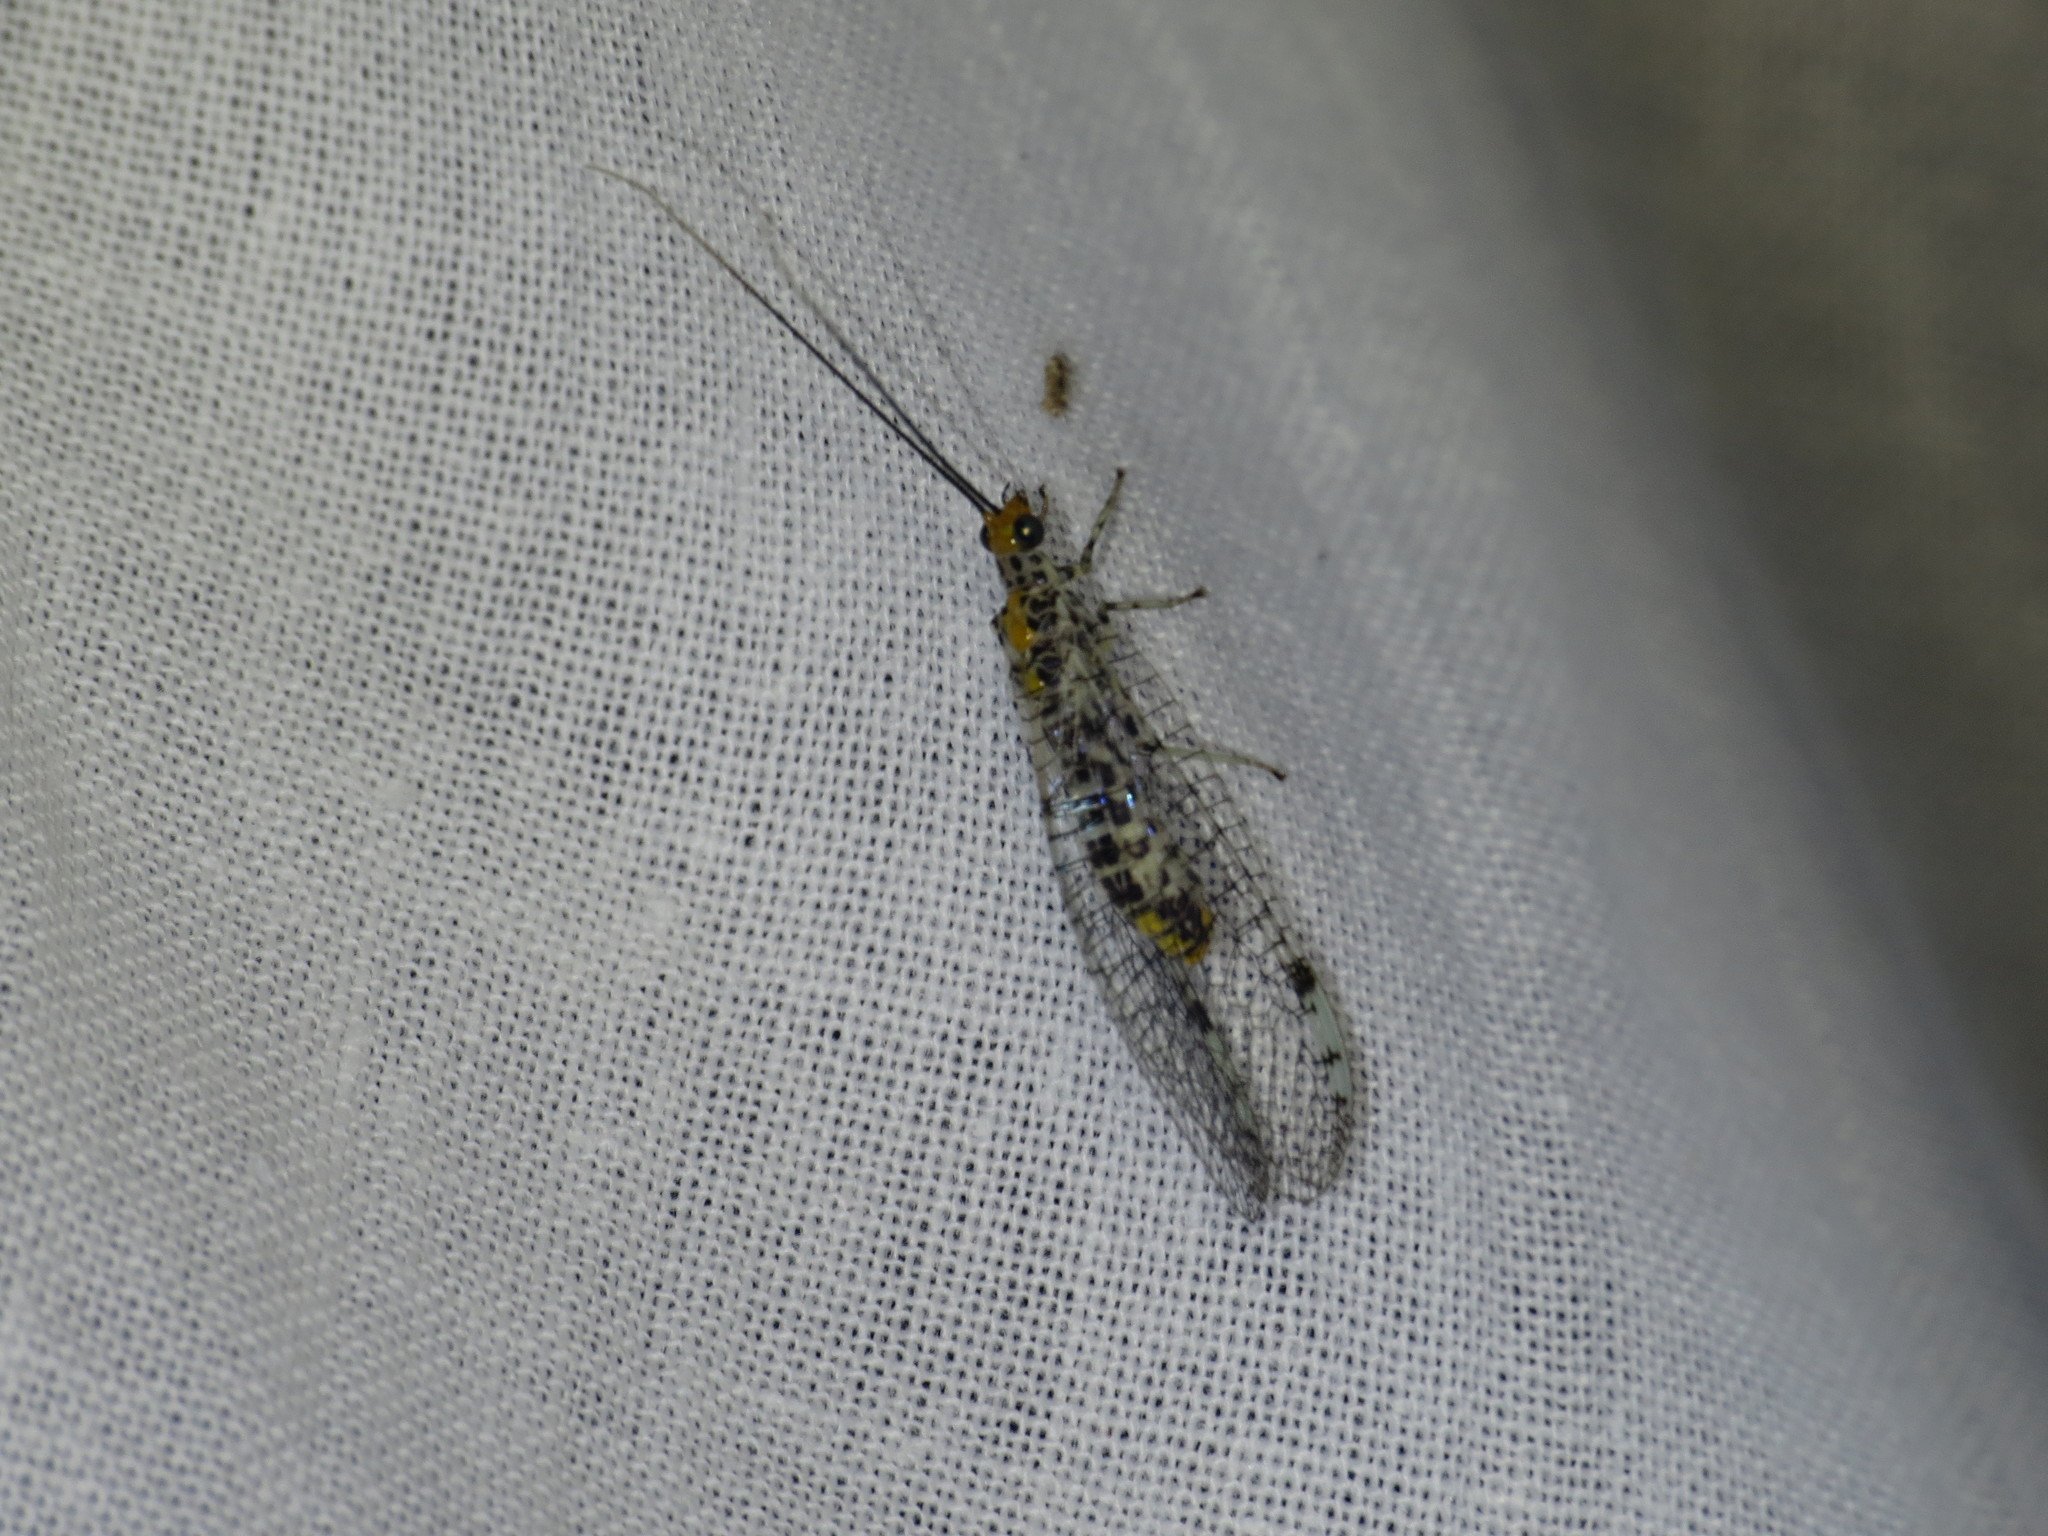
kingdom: Animalia
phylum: Arthropoda
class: Insecta
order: Neuroptera
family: Chrysopidae
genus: Abachrysa
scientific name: Abachrysa eureka
